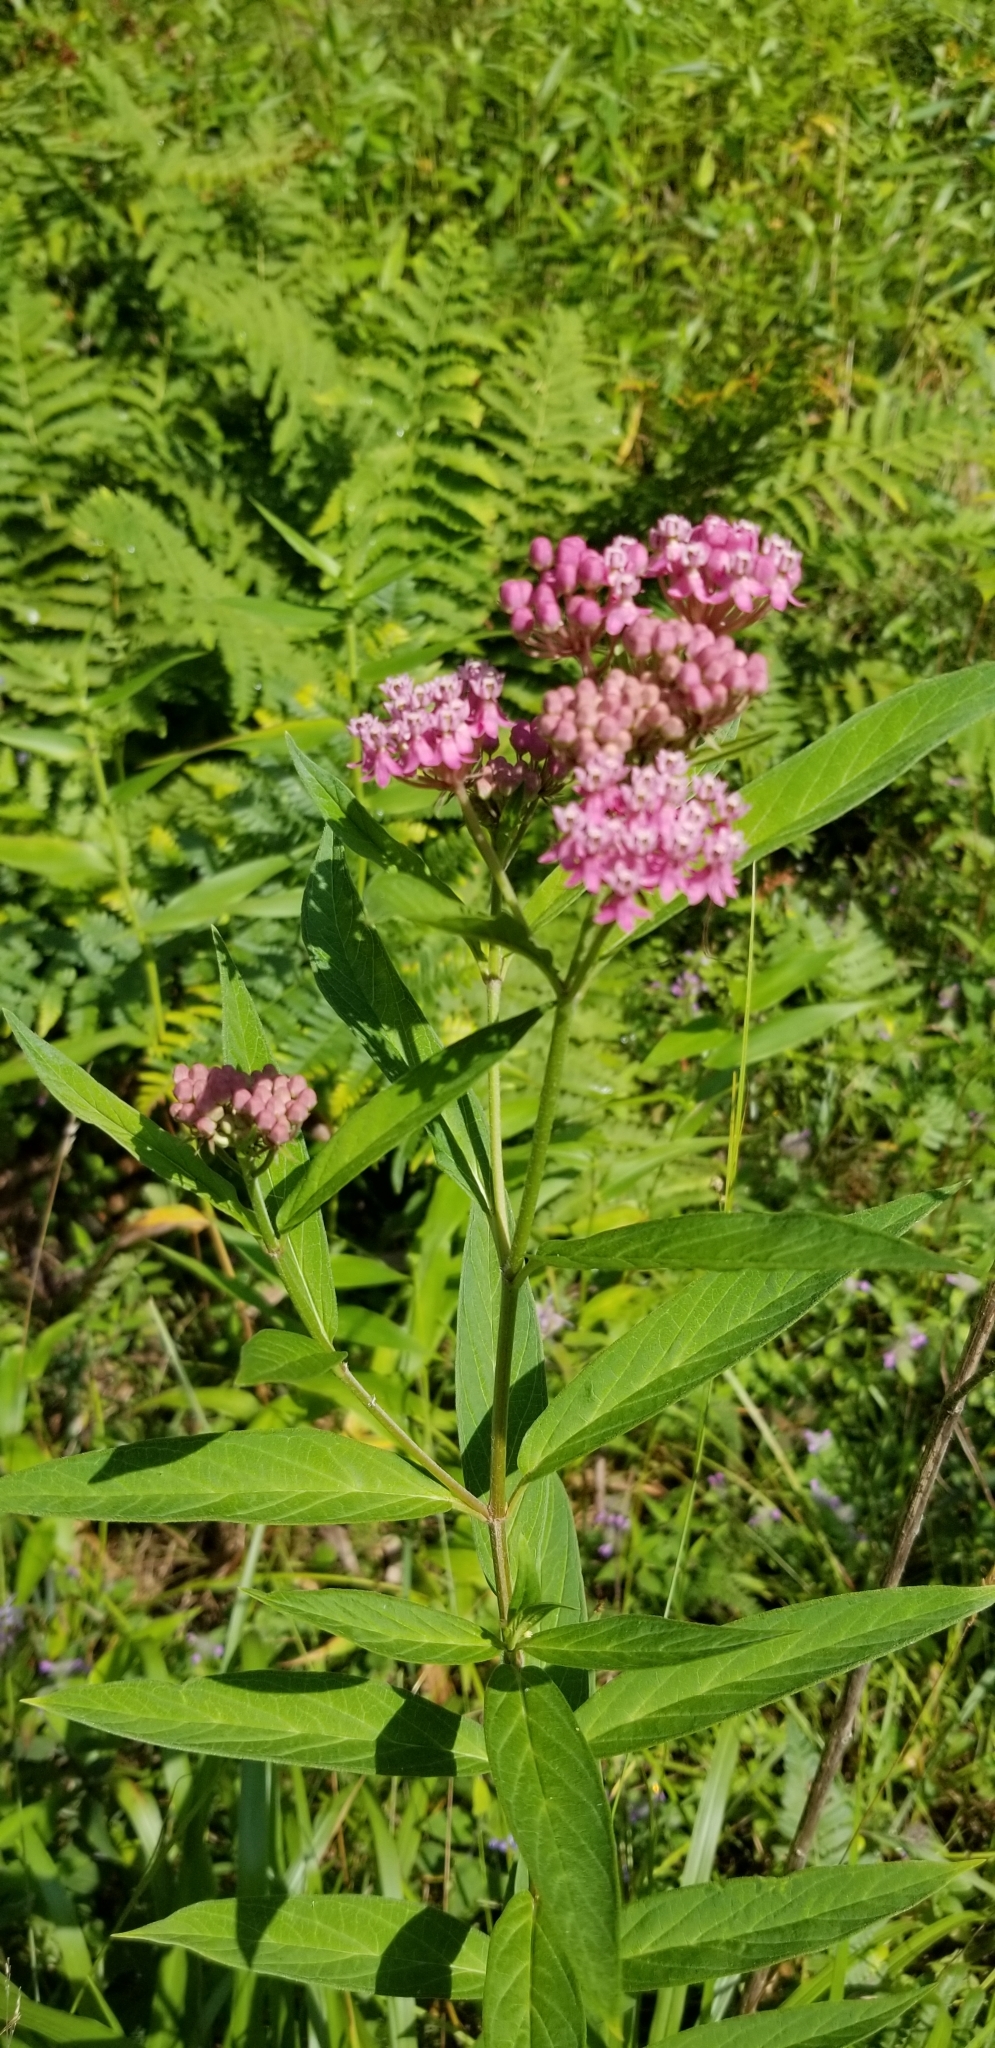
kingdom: Plantae
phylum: Tracheophyta
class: Magnoliopsida
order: Gentianales
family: Apocynaceae
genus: Asclepias
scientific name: Asclepias incarnata
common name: Swamp milkweed
